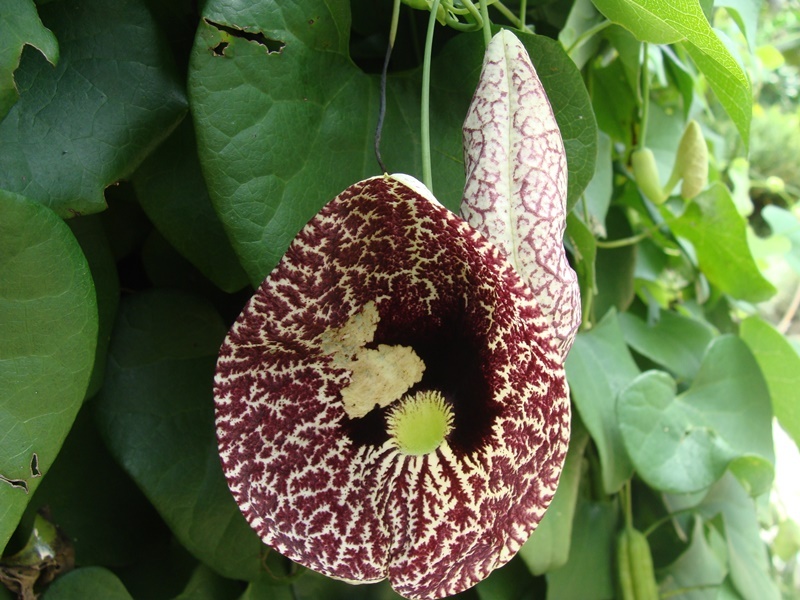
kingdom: Plantae
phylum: Tracheophyta
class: Magnoliopsida
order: Piperales
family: Aristolochiaceae
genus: Aristolochia
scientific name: Aristolochia littoralis
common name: Duck
